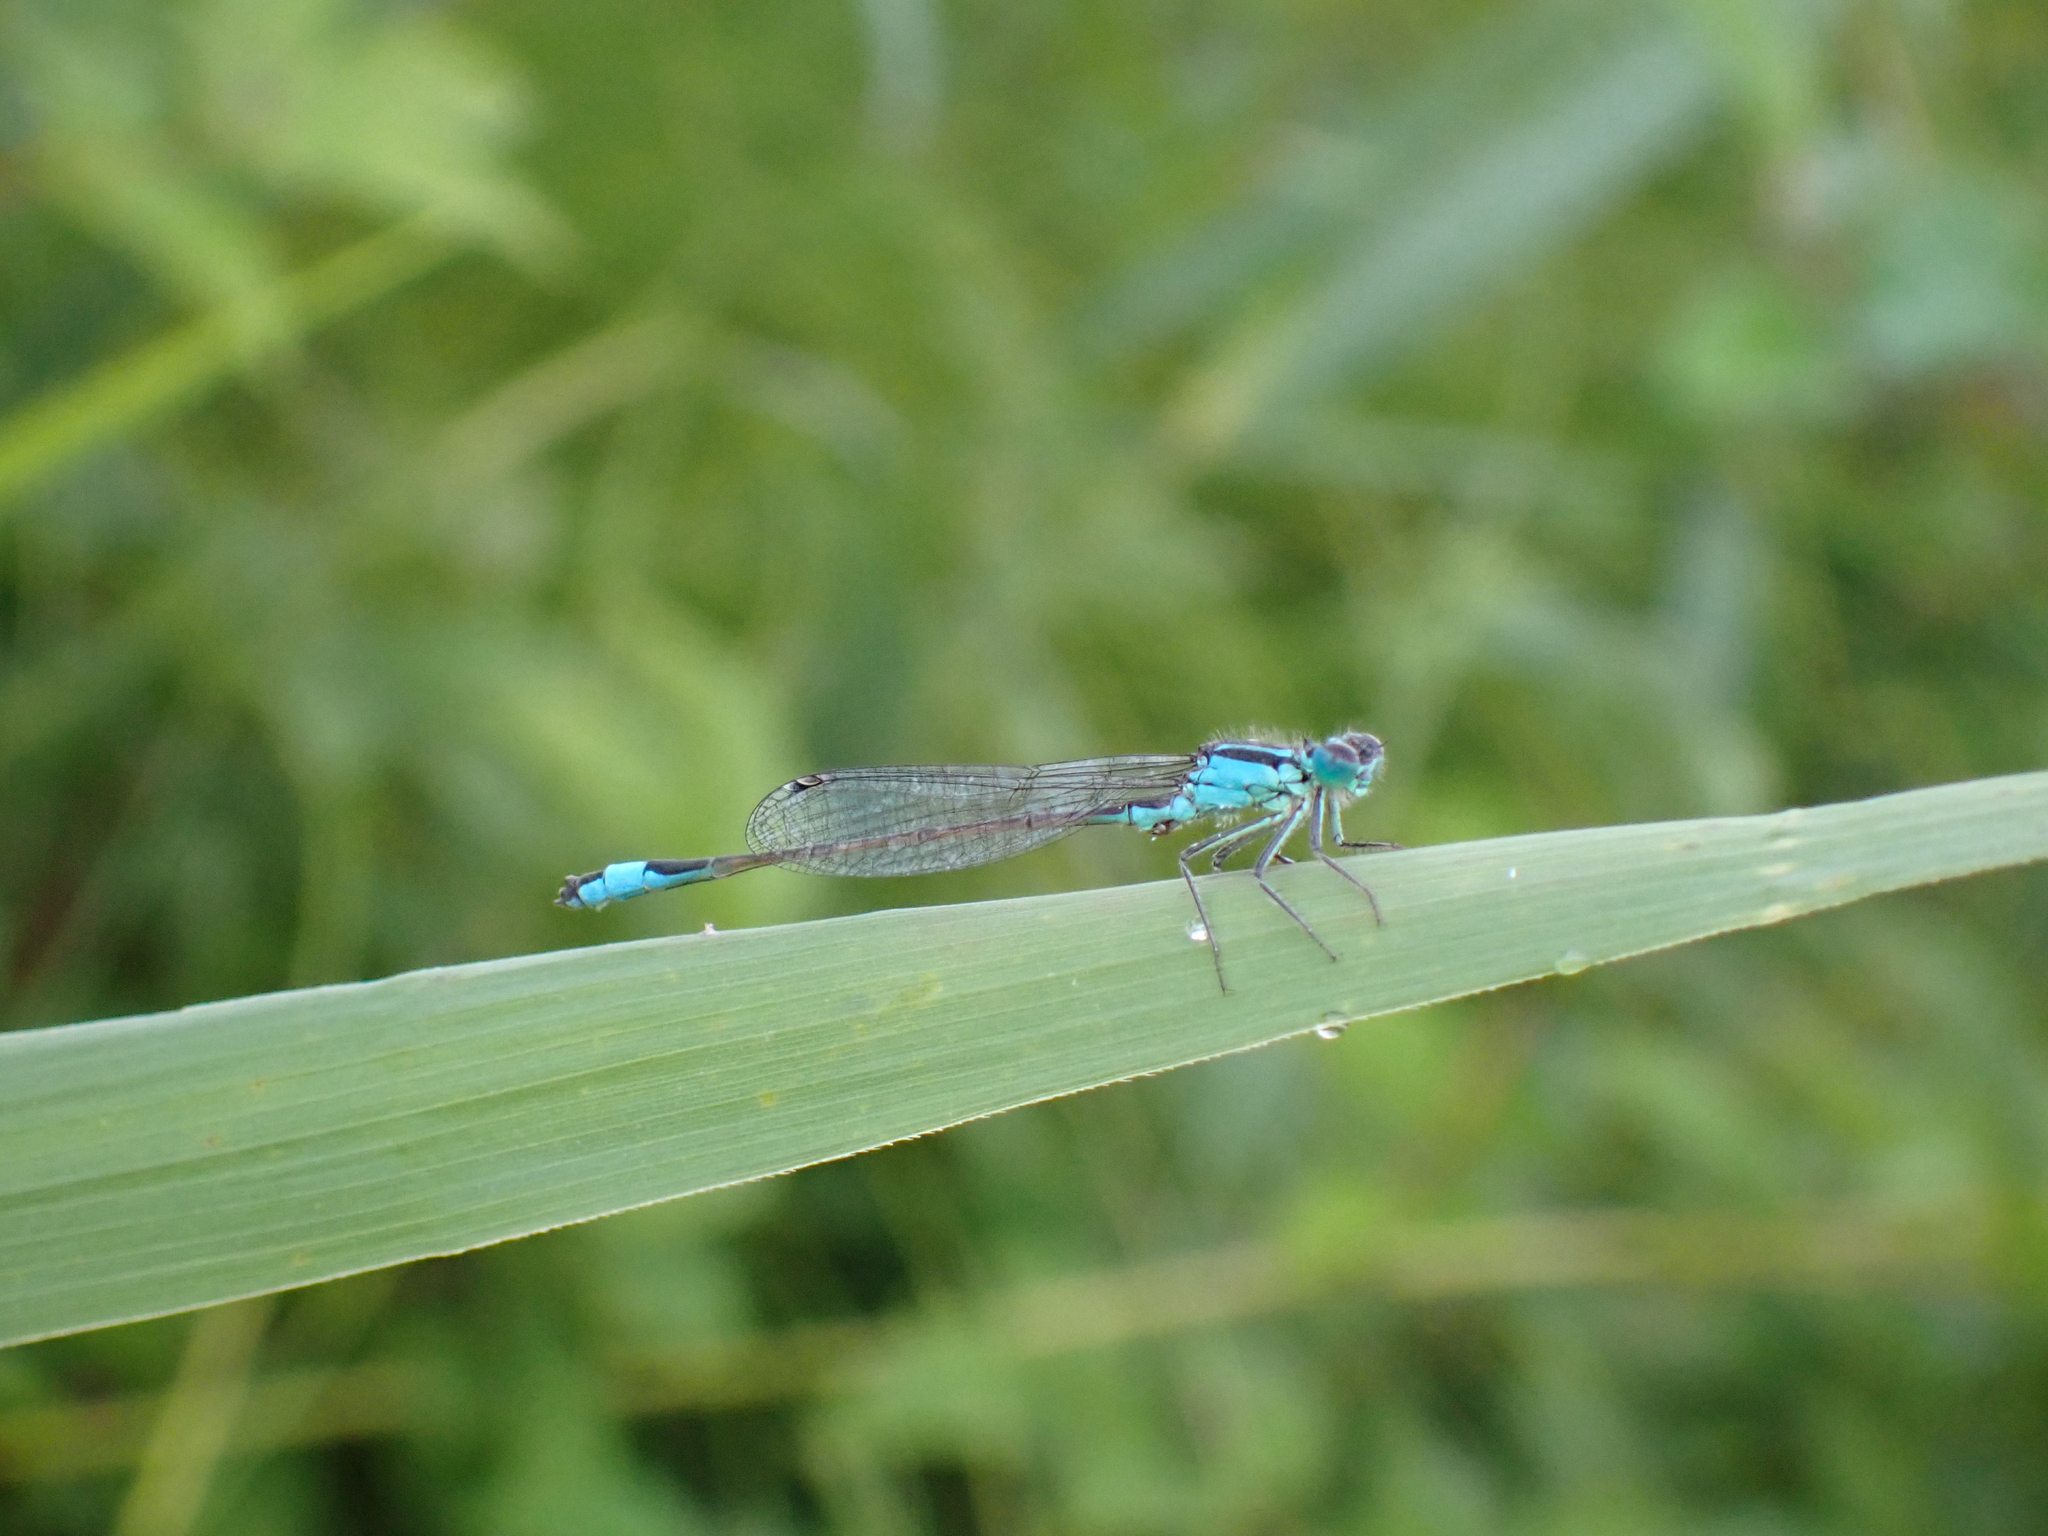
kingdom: Animalia
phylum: Arthropoda
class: Insecta
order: Odonata
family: Coenagrionidae
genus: Ischnura
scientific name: Ischnura elegans
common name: Blue-tailed damselfly
